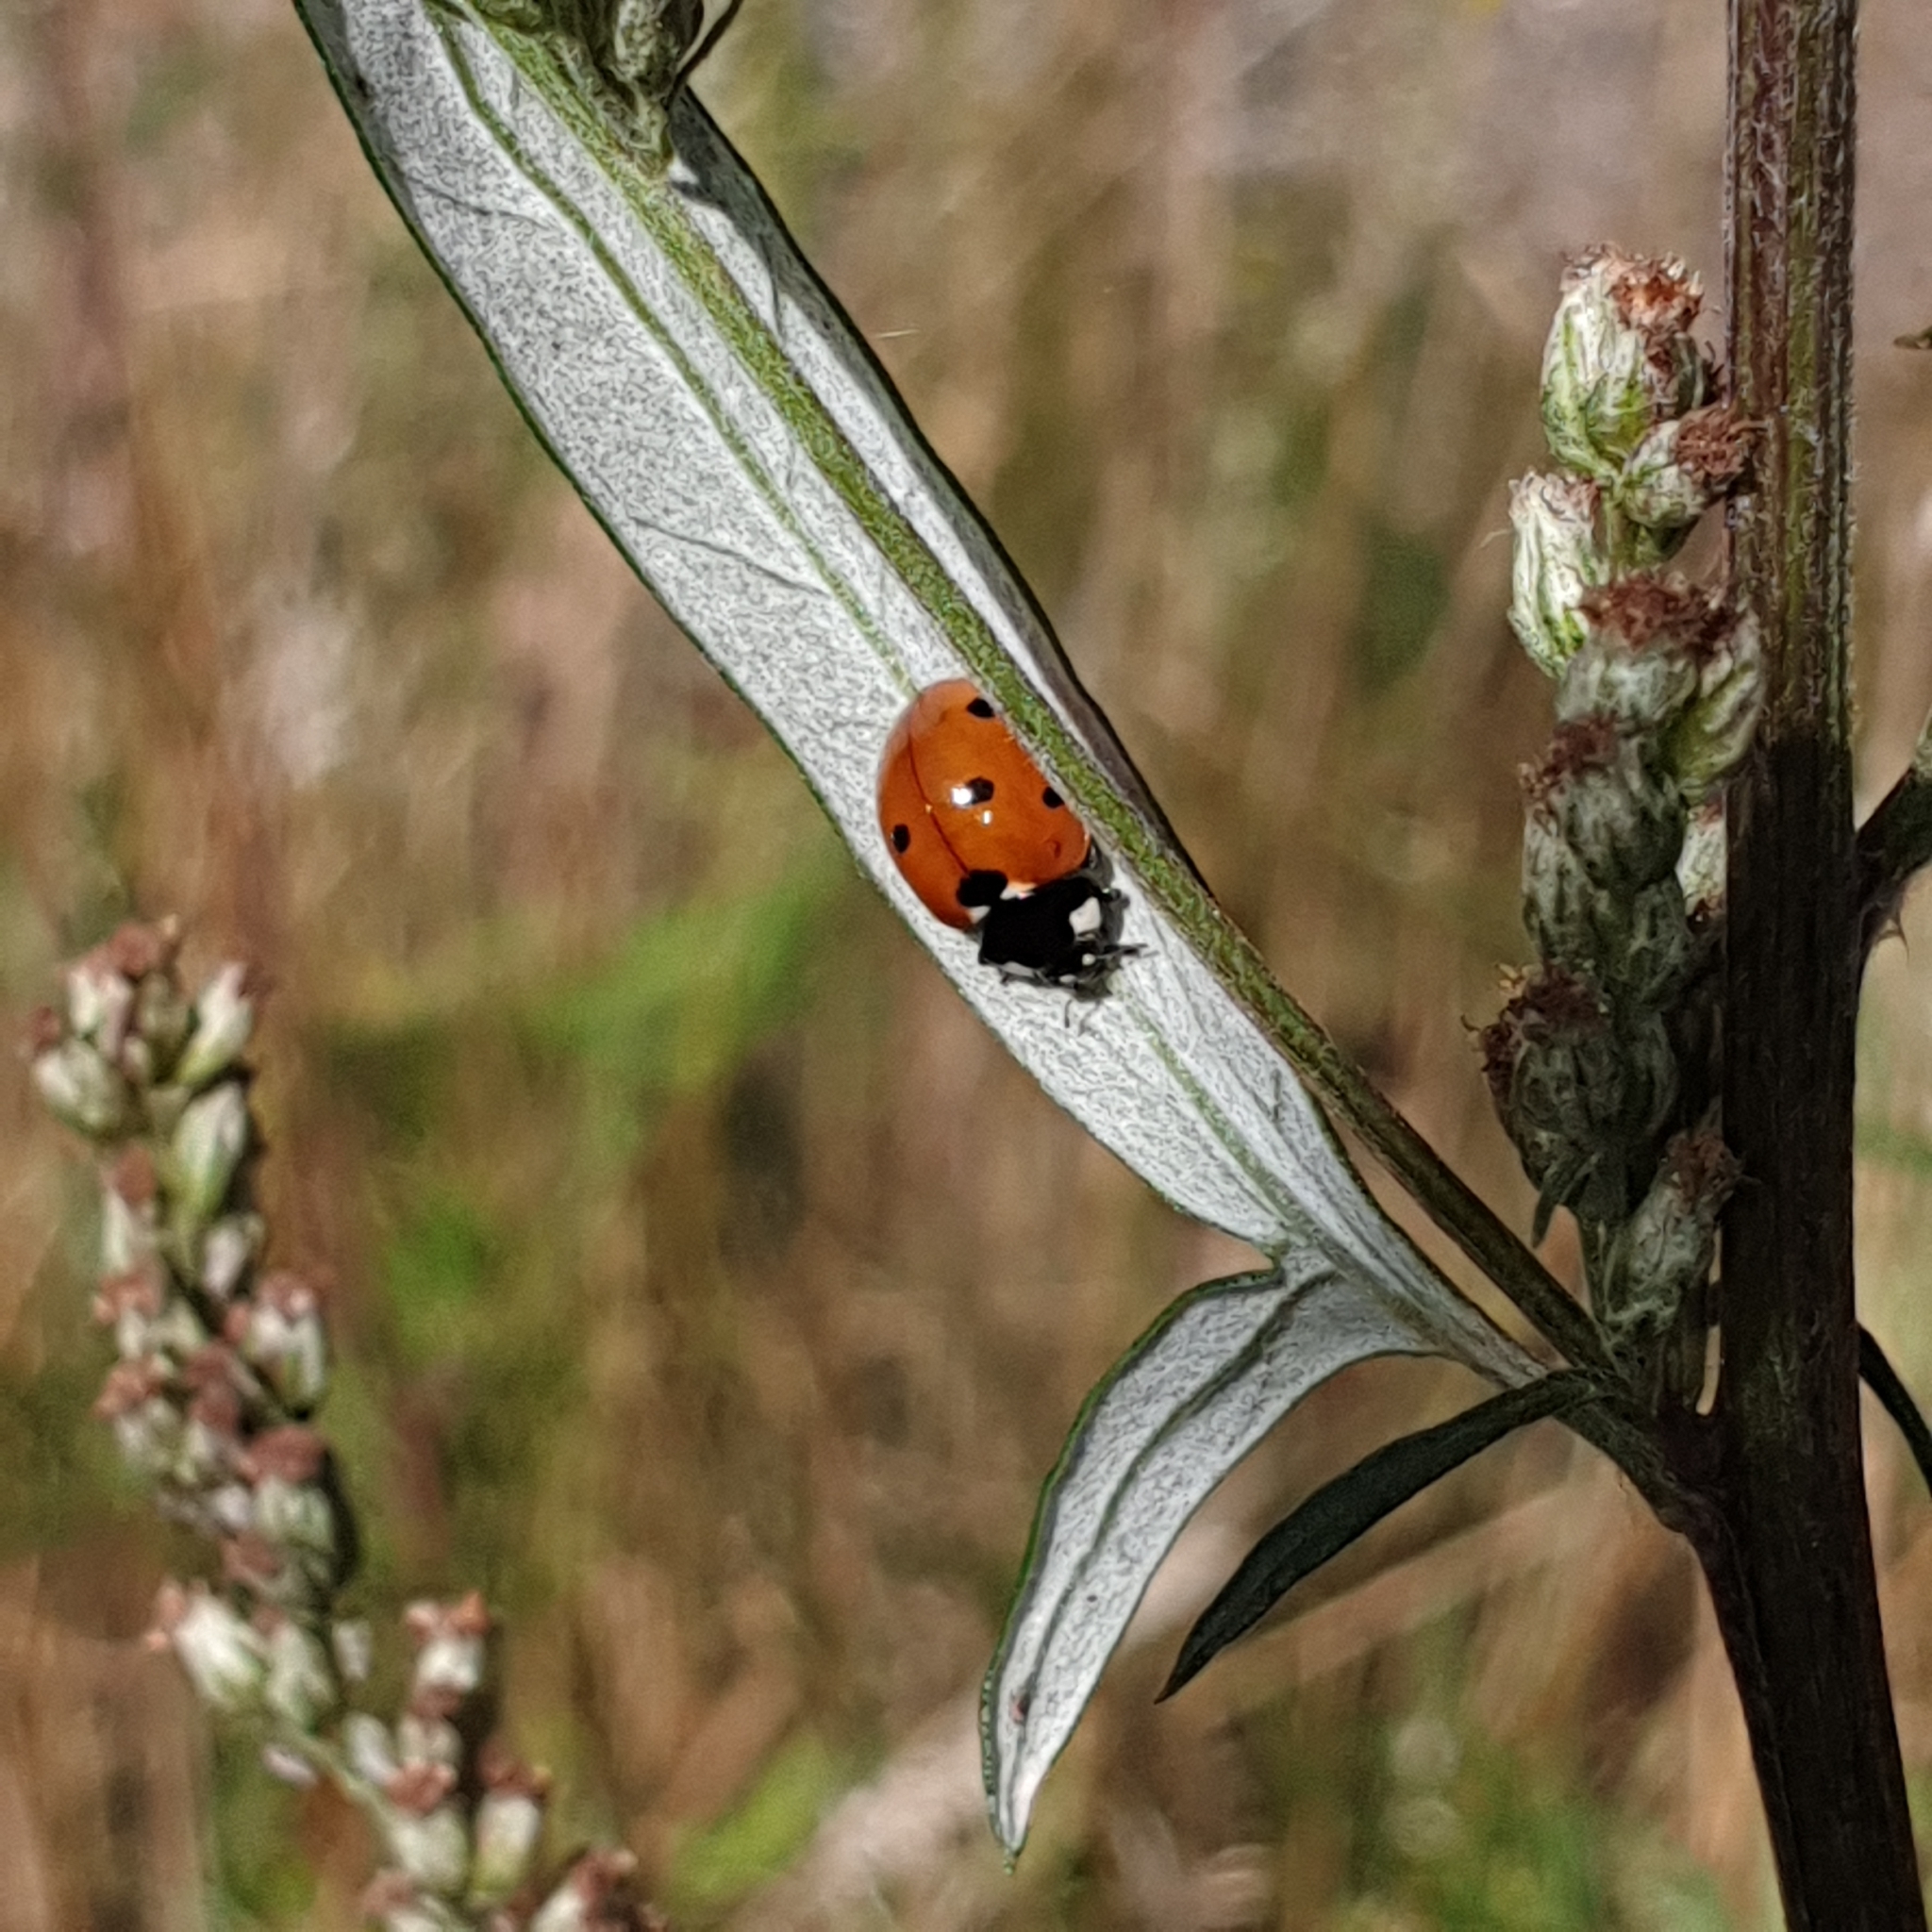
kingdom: Animalia
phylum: Arthropoda
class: Insecta
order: Coleoptera
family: Coccinellidae
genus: Coccinella
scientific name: Coccinella septempunctata
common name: Sevenspotted lady beetle
